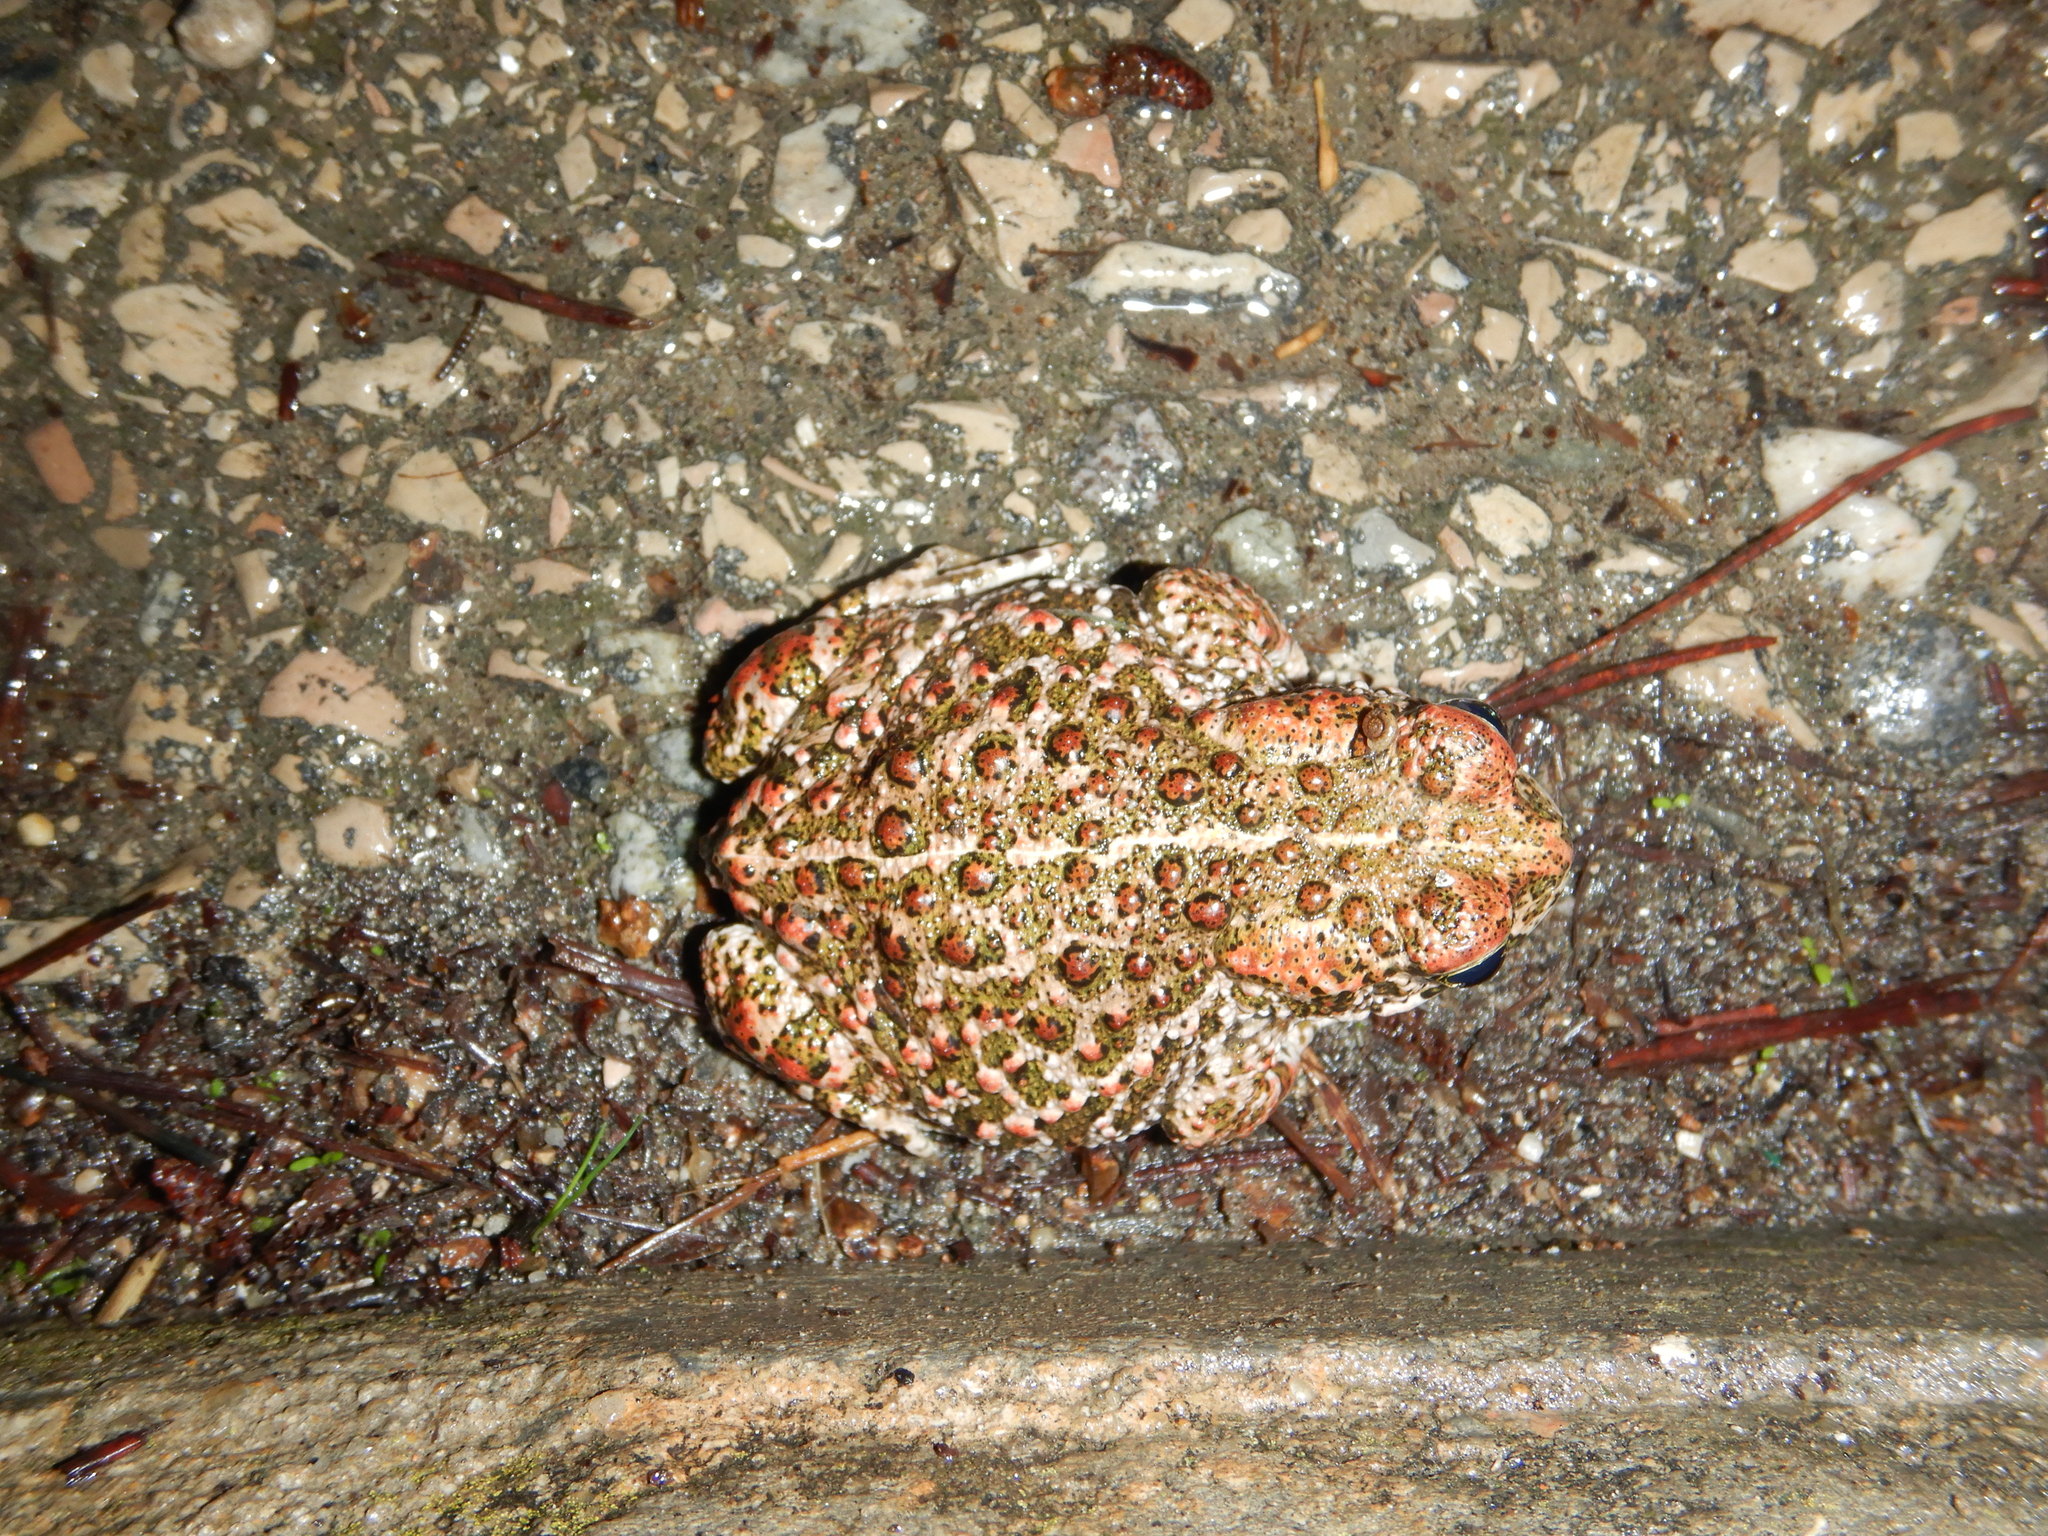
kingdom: Animalia
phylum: Chordata
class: Amphibia
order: Anura
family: Bufonidae
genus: Epidalea
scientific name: Epidalea calamita
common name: Natterjack toad
